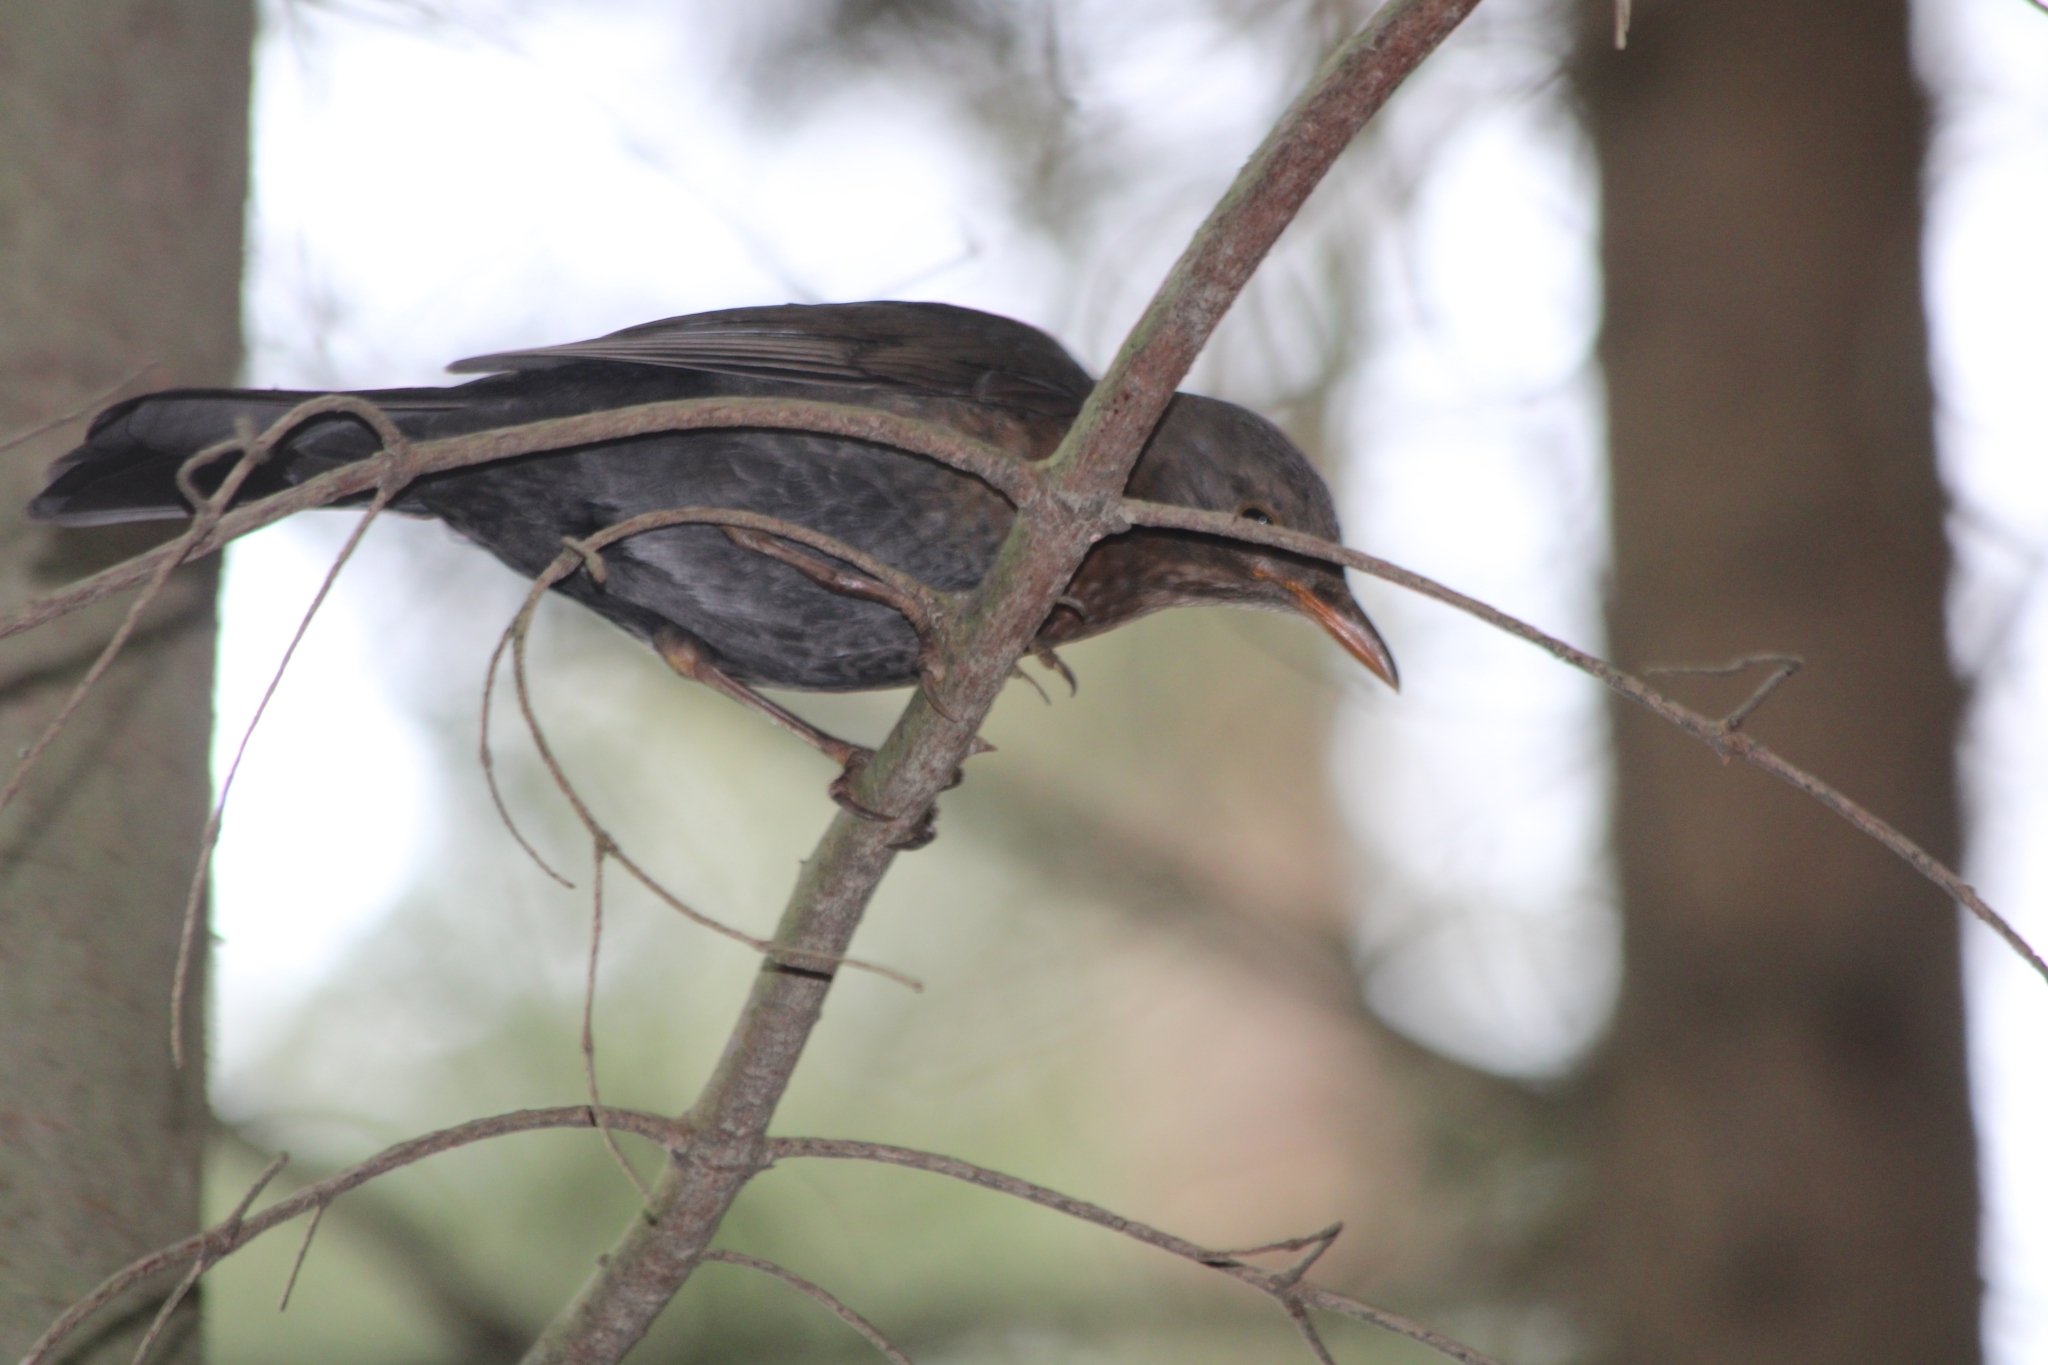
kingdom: Animalia
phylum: Chordata
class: Aves
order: Passeriformes
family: Turdidae
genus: Turdus
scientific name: Turdus merula
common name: Common blackbird
